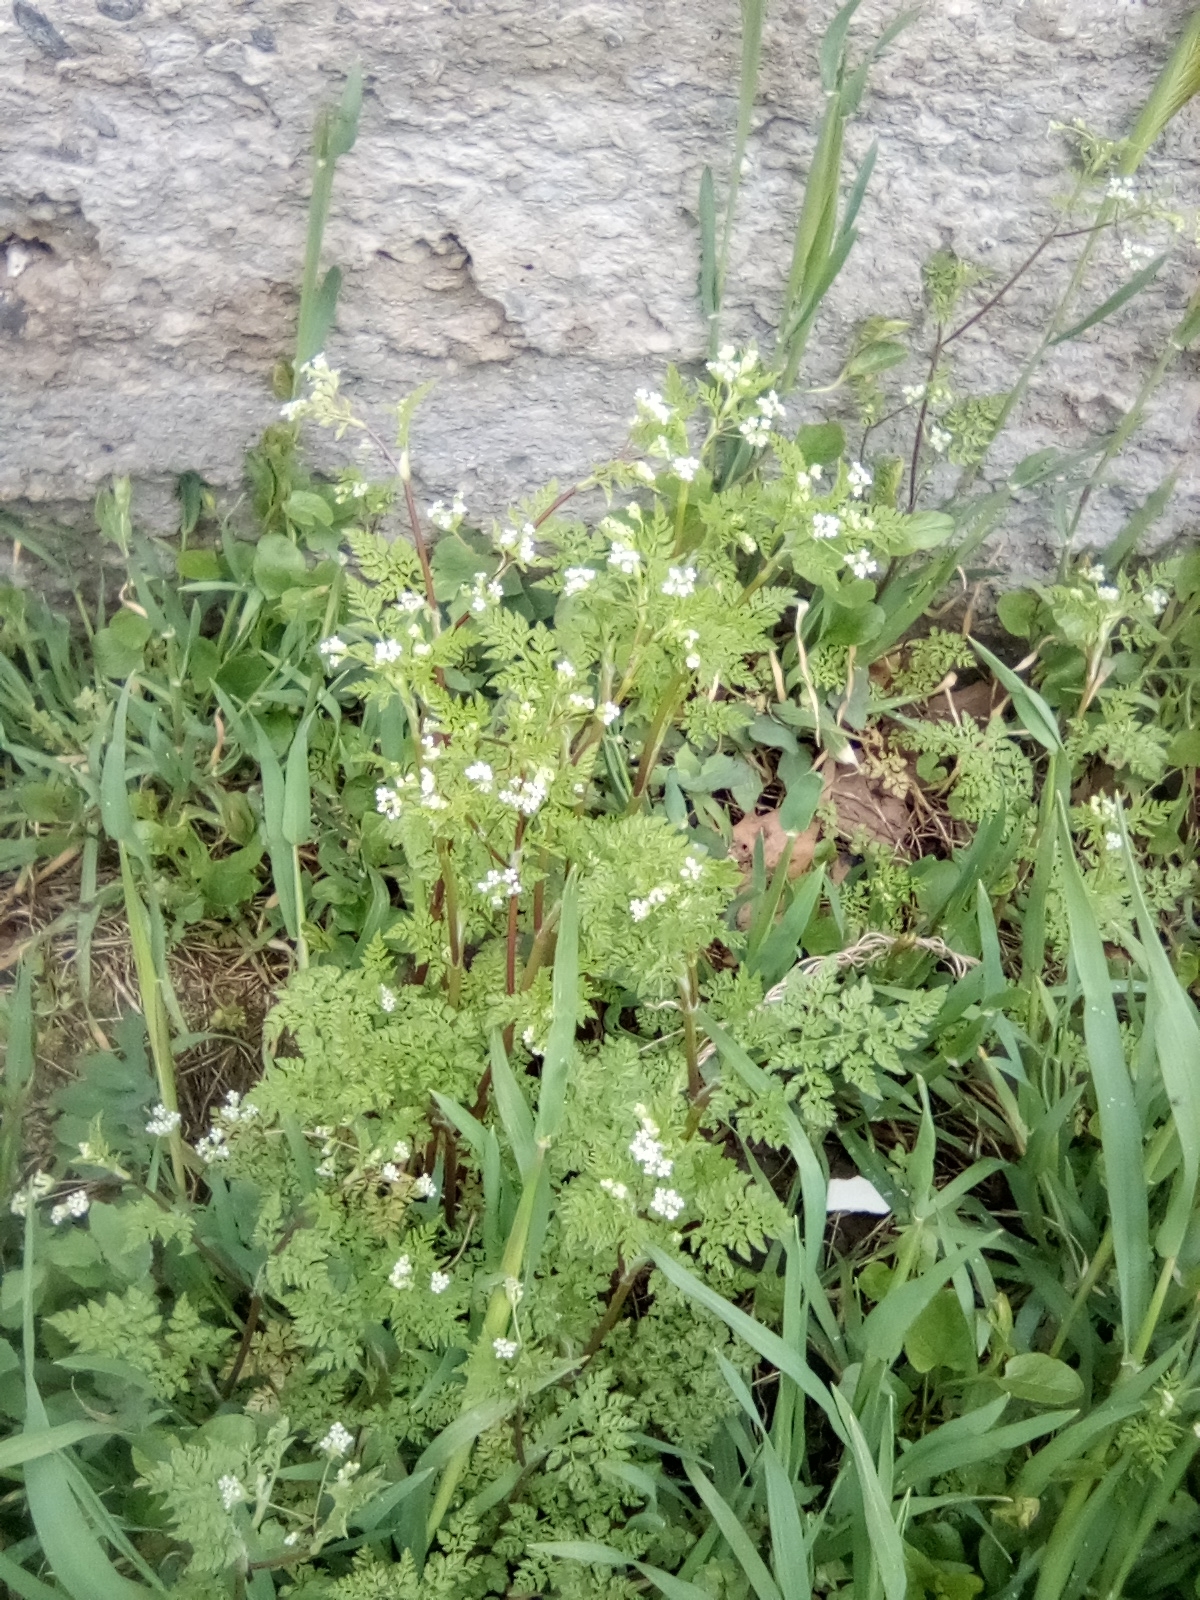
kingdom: Plantae
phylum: Tracheophyta
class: Magnoliopsida
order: Apiales
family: Apiaceae
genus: Anthriscus
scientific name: Anthriscus cerefolium
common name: Garden chervil
